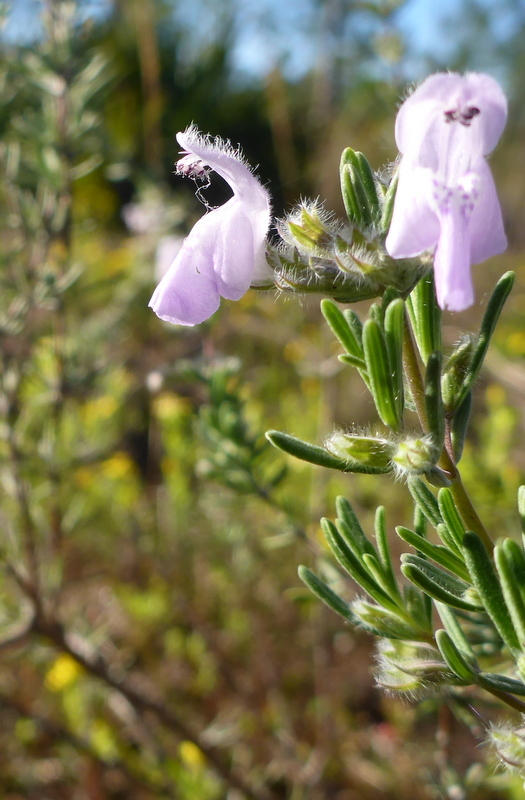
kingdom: Plantae
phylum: Tracheophyta
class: Magnoliopsida
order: Lamiales
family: Lamiaceae
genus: Conradina
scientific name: Conradina canescens
